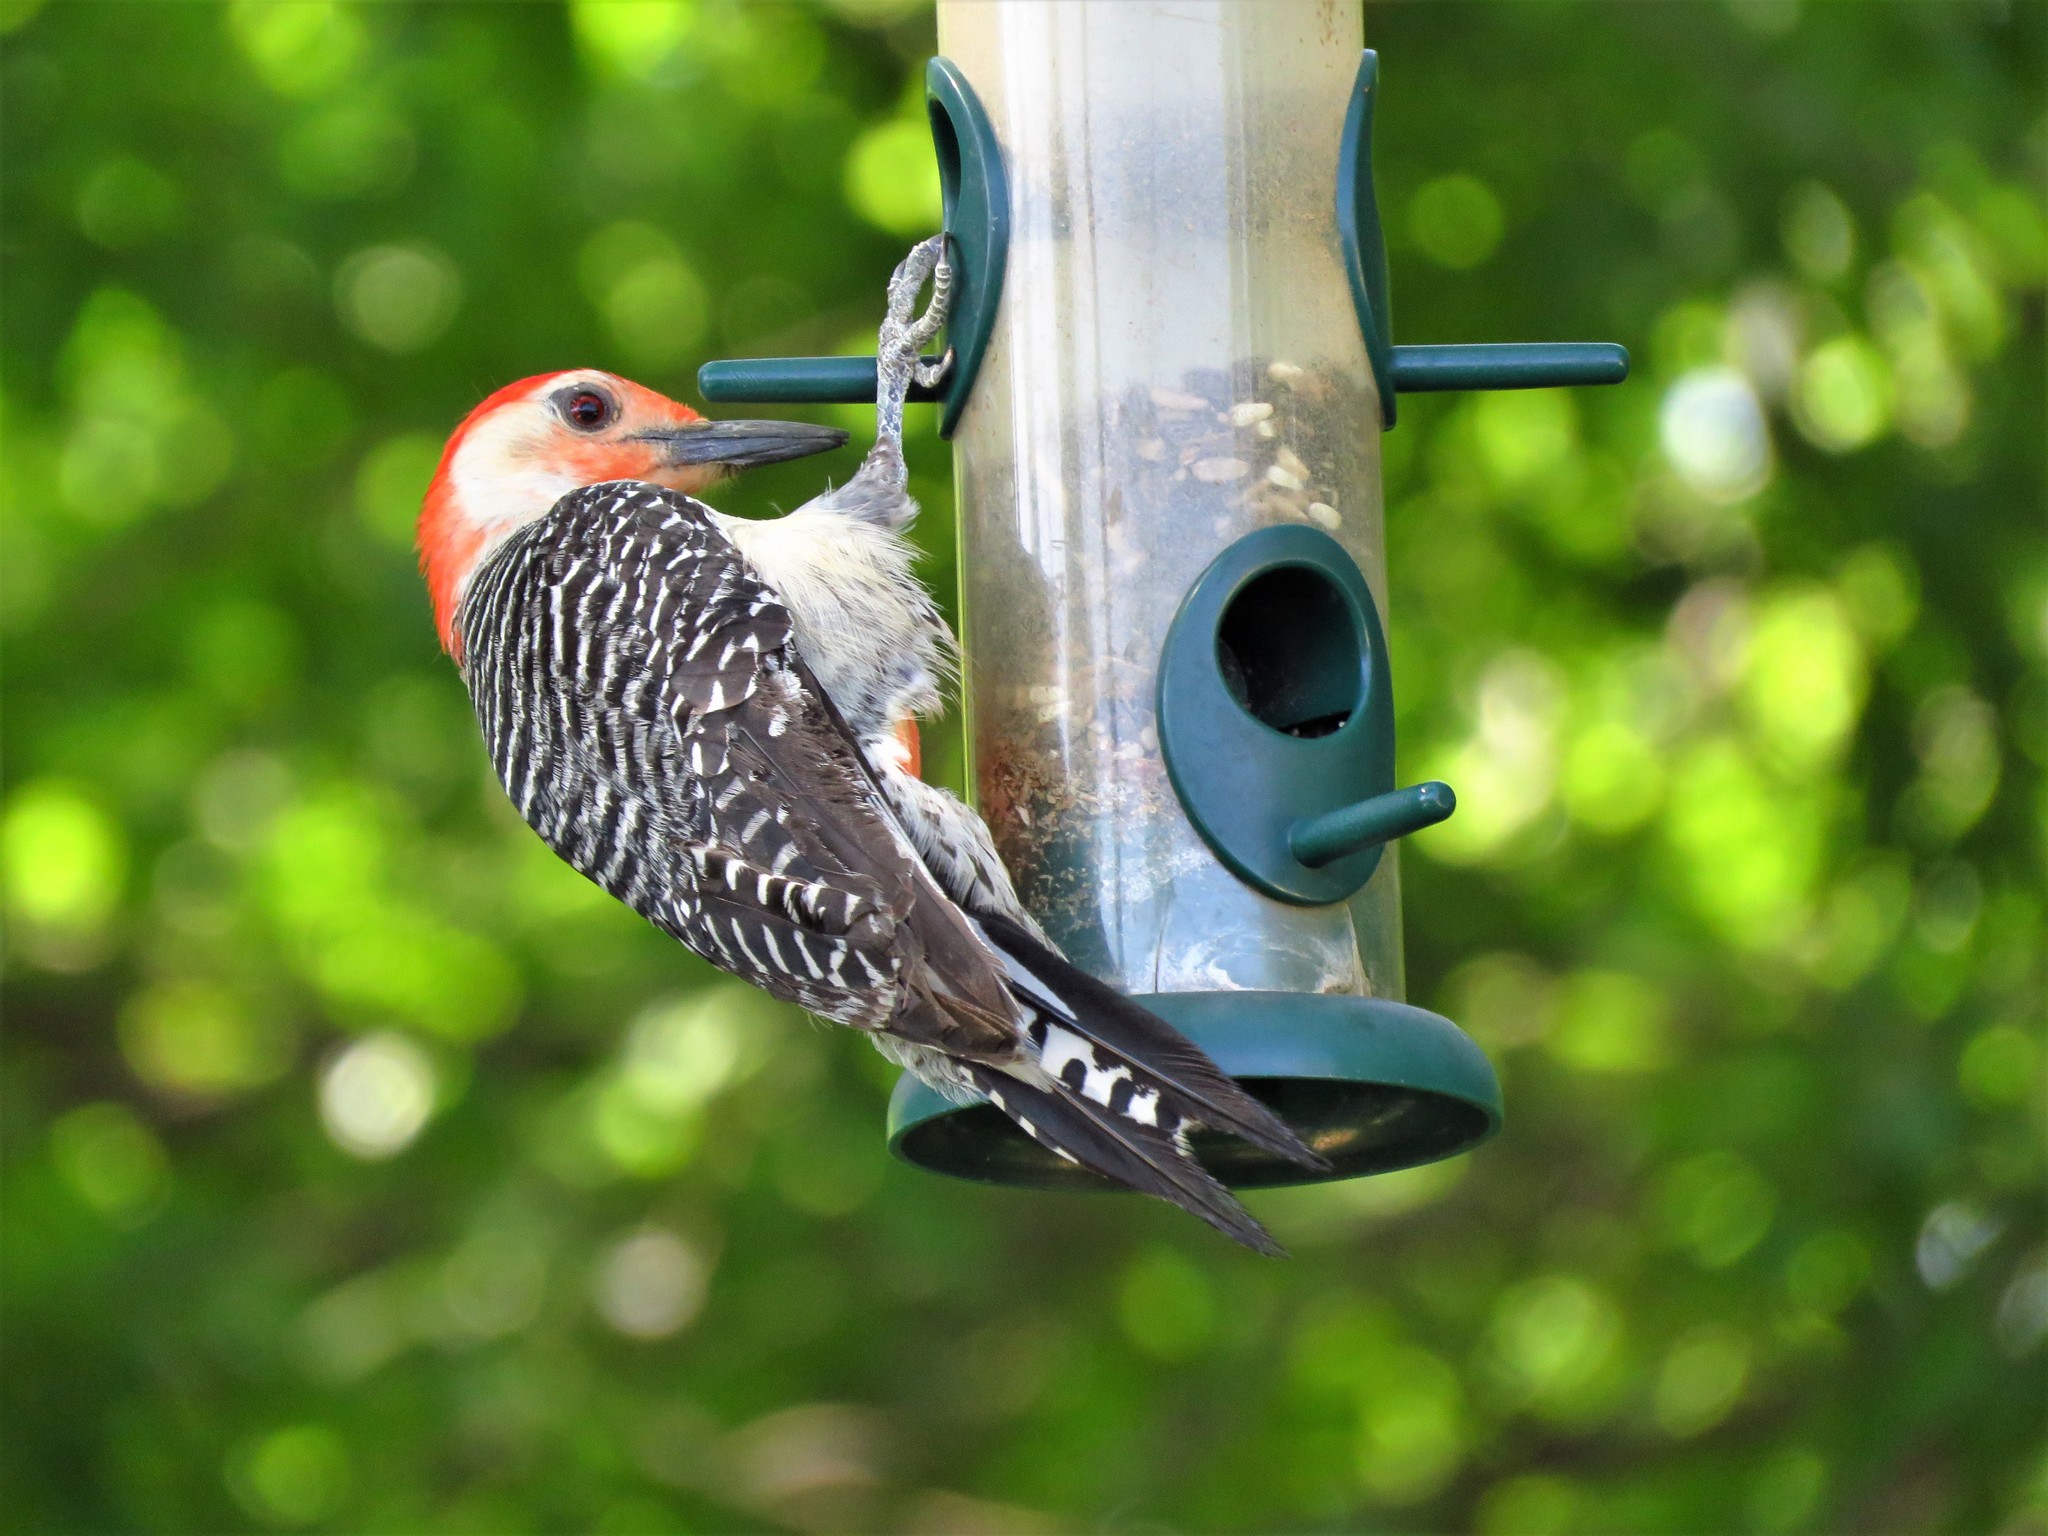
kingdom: Animalia
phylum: Chordata
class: Aves
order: Piciformes
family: Picidae
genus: Melanerpes
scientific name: Melanerpes carolinus
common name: Red-bellied woodpecker
